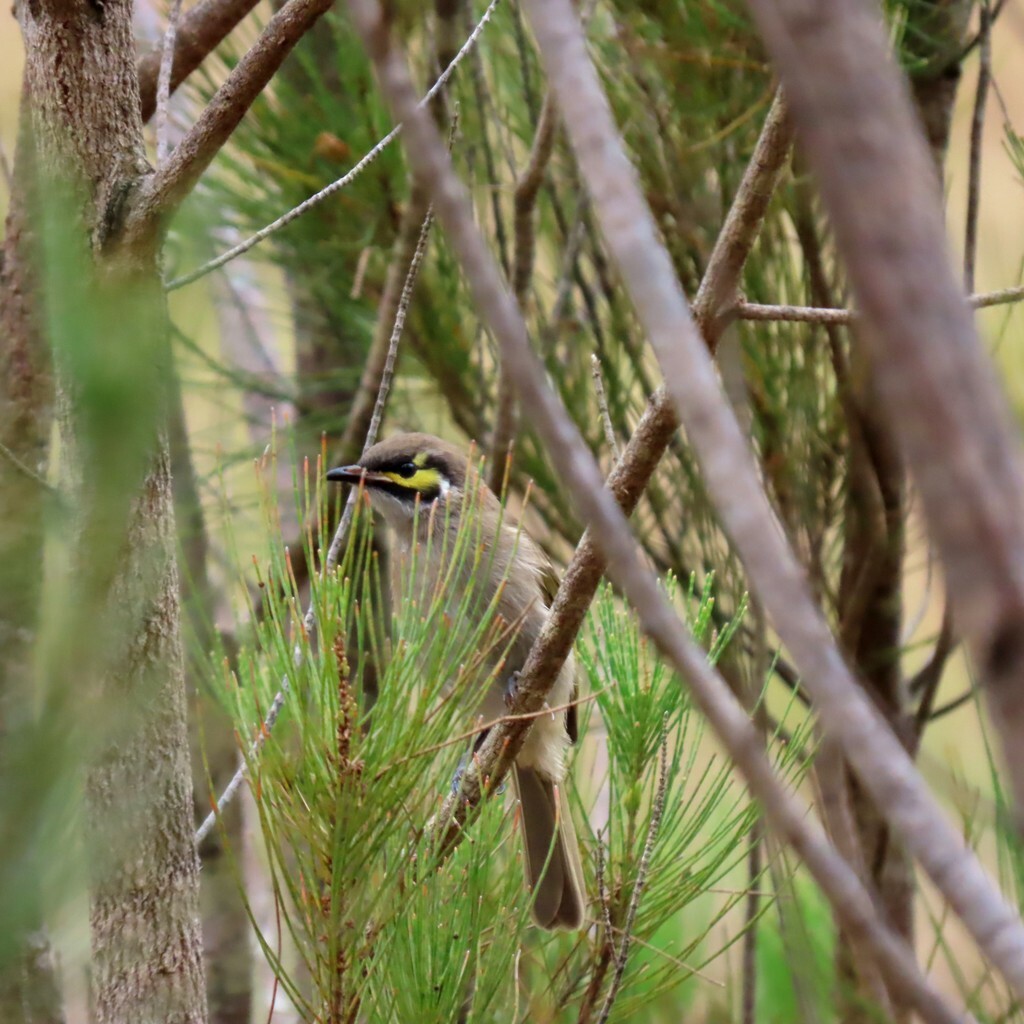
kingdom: Animalia
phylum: Chordata
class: Aves
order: Passeriformes
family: Meliphagidae
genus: Caligavis
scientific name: Caligavis chrysops
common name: Yellow-faced honeyeater
